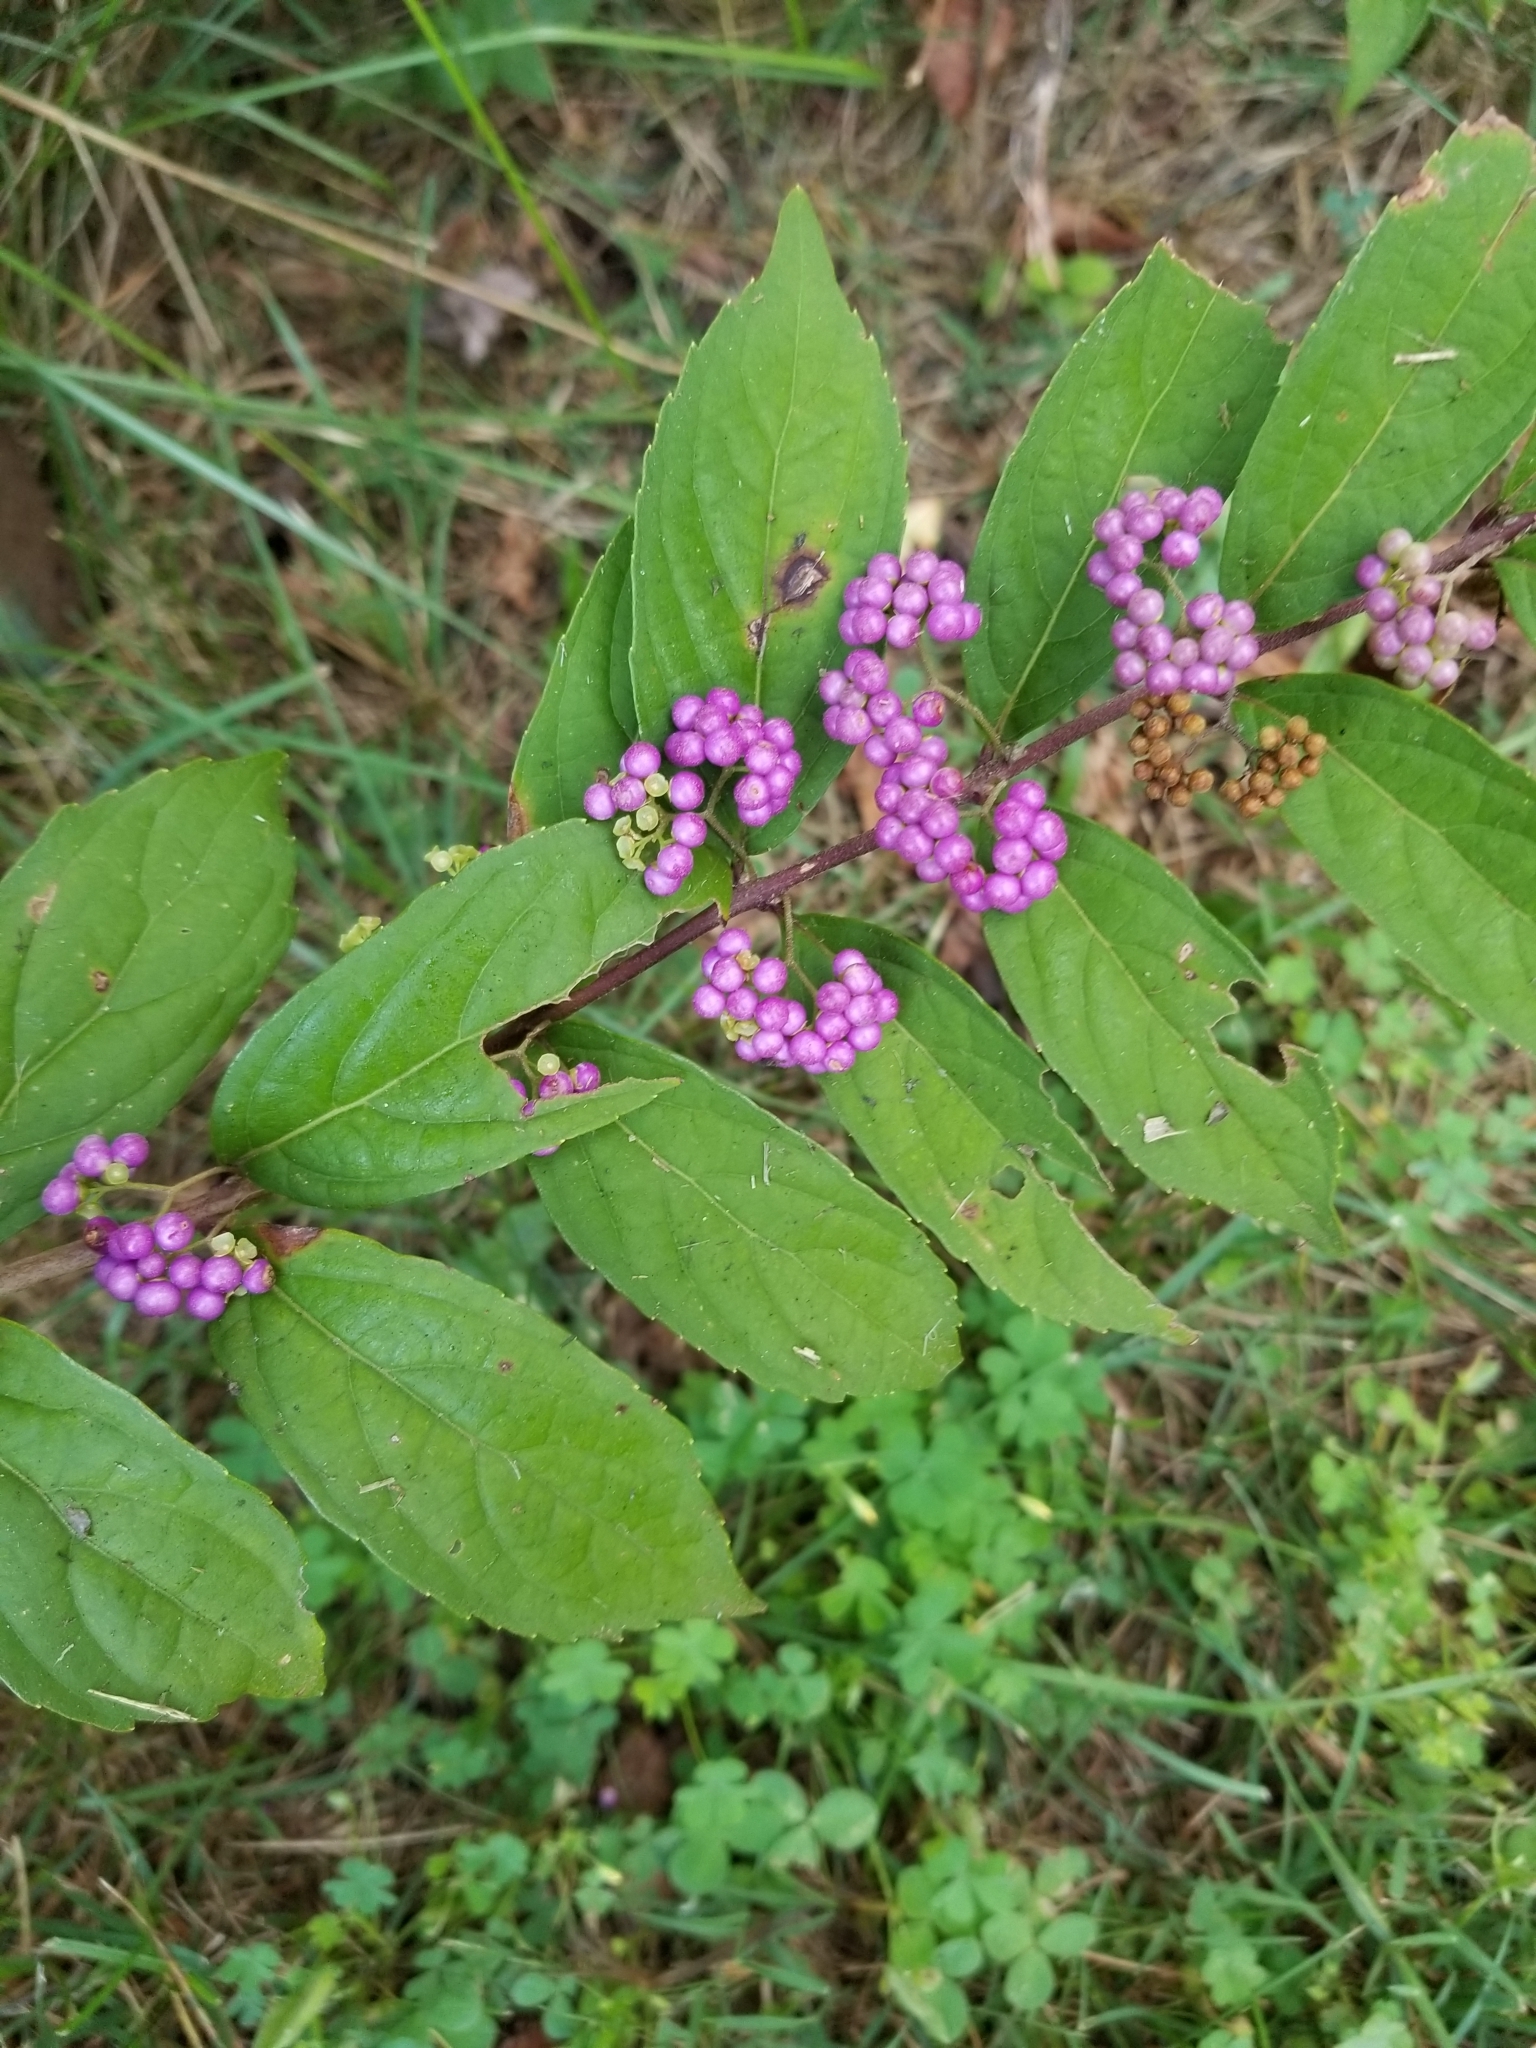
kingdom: Plantae
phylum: Tracheophyta
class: Magnoliopsida
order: Lamiales
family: Lamiaceae
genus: Callicarpa
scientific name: Callicarpa dichotoma
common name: Purple beauty-berry
